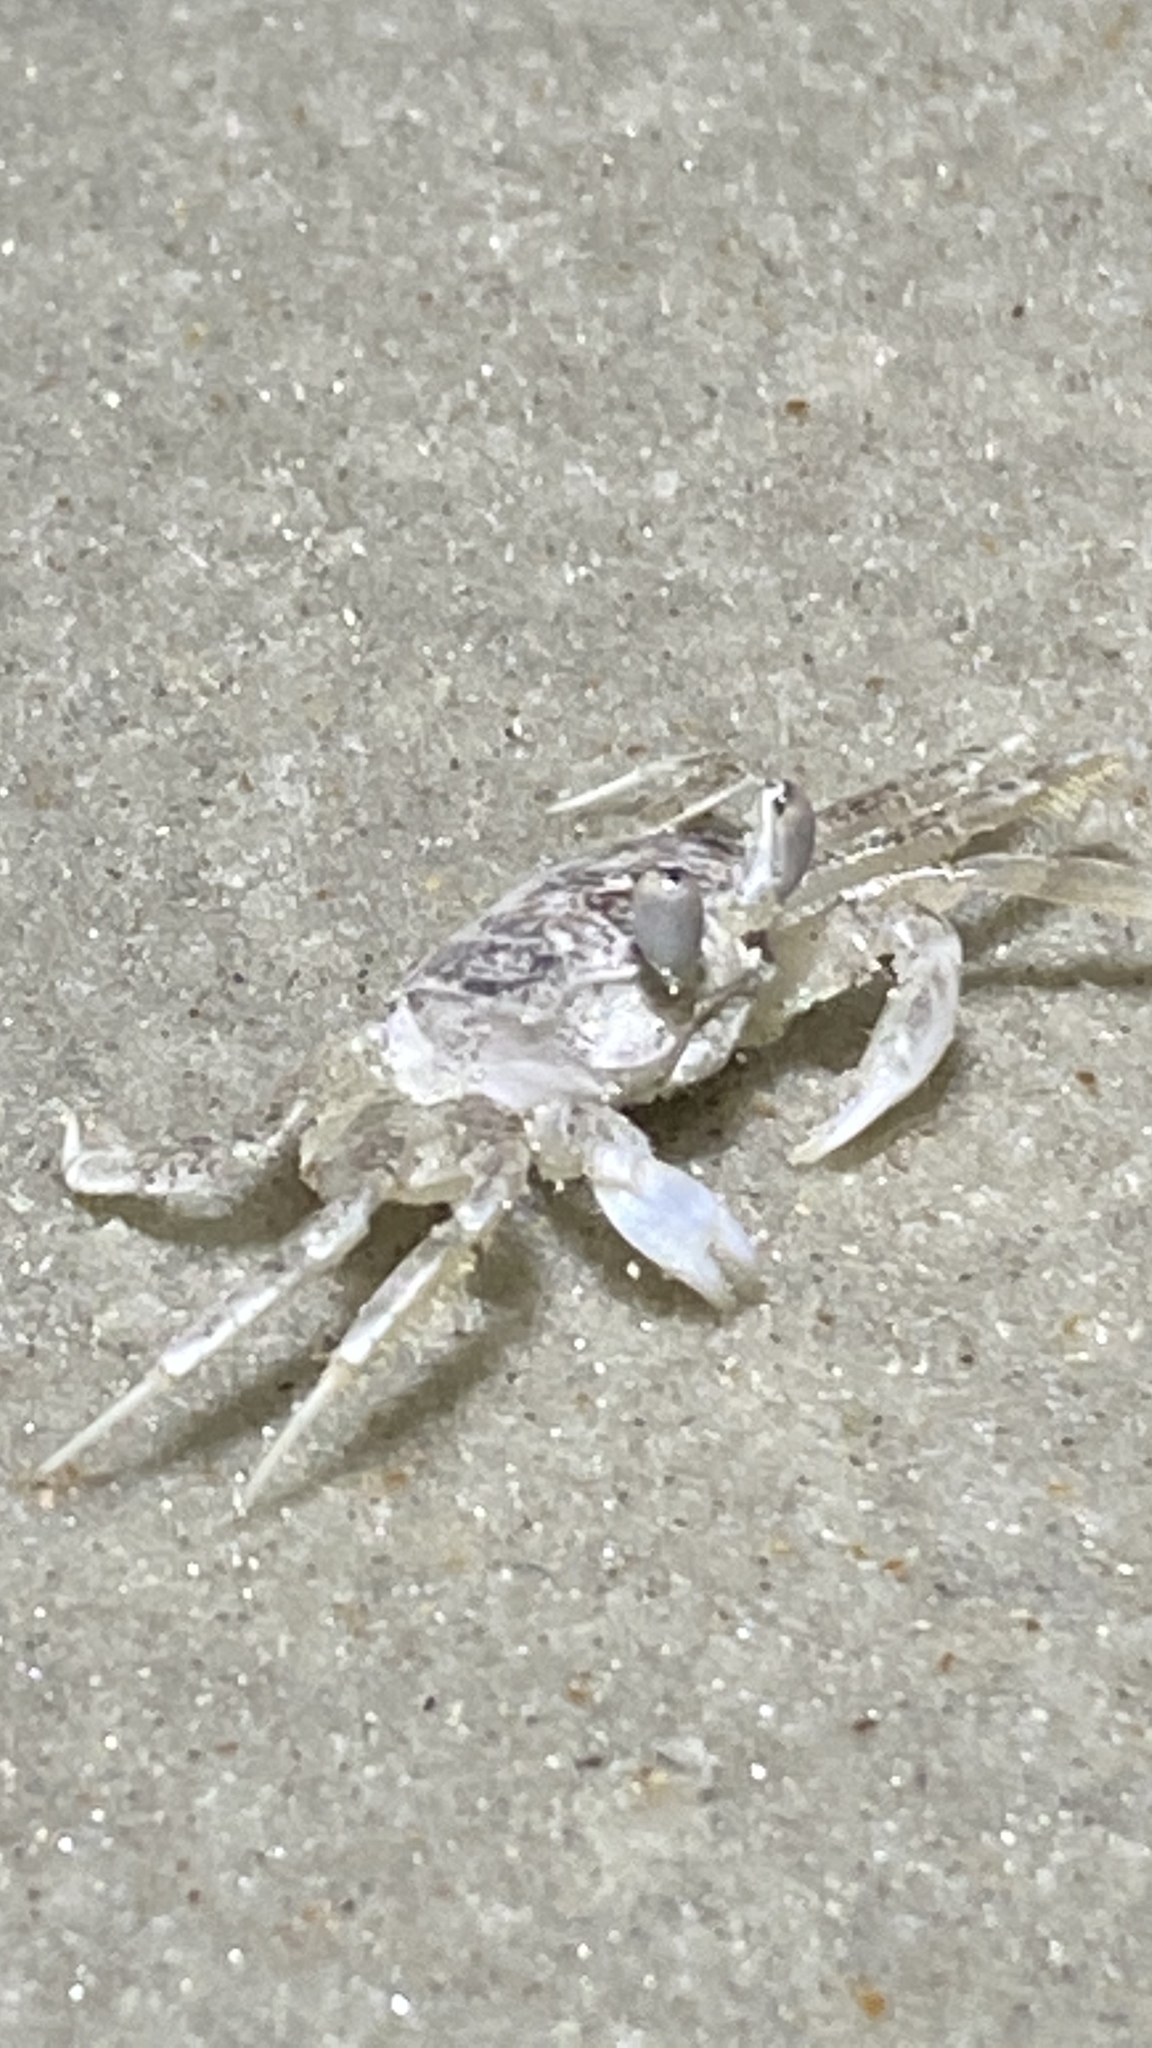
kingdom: Animalia
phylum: Arthropoda
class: Malacostraca
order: Decapoda
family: Ocypodidae
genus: Ocypode
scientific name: Ocypode quadrata
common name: Ghost crab
